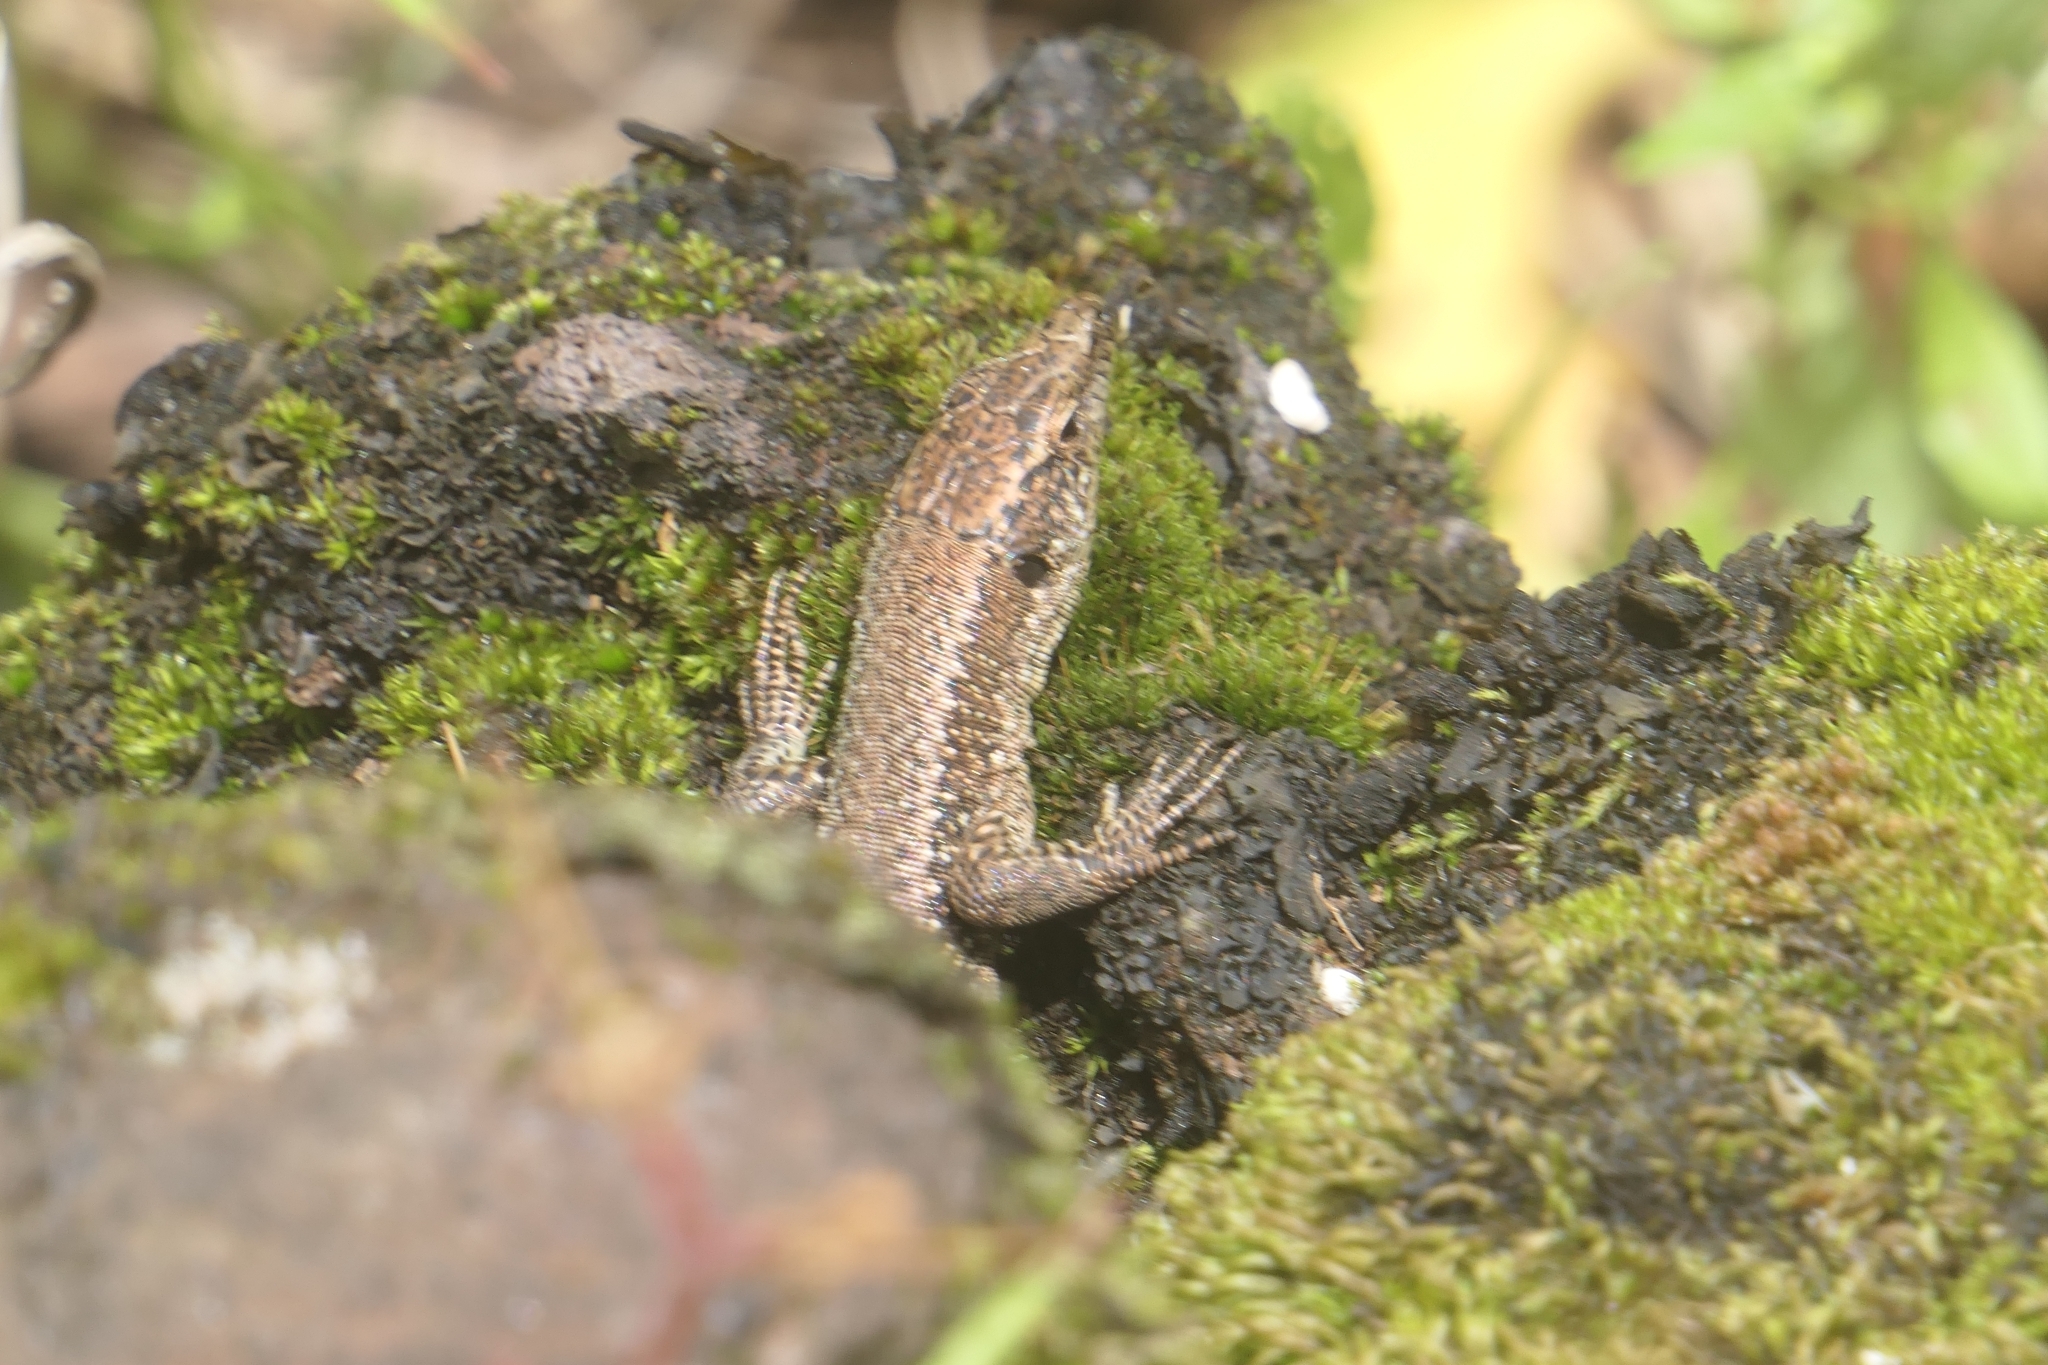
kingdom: Animalia
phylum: Chordata
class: Squamata
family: Lacertidae
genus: Teira
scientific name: Teira dugesii
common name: Madeira lizard
